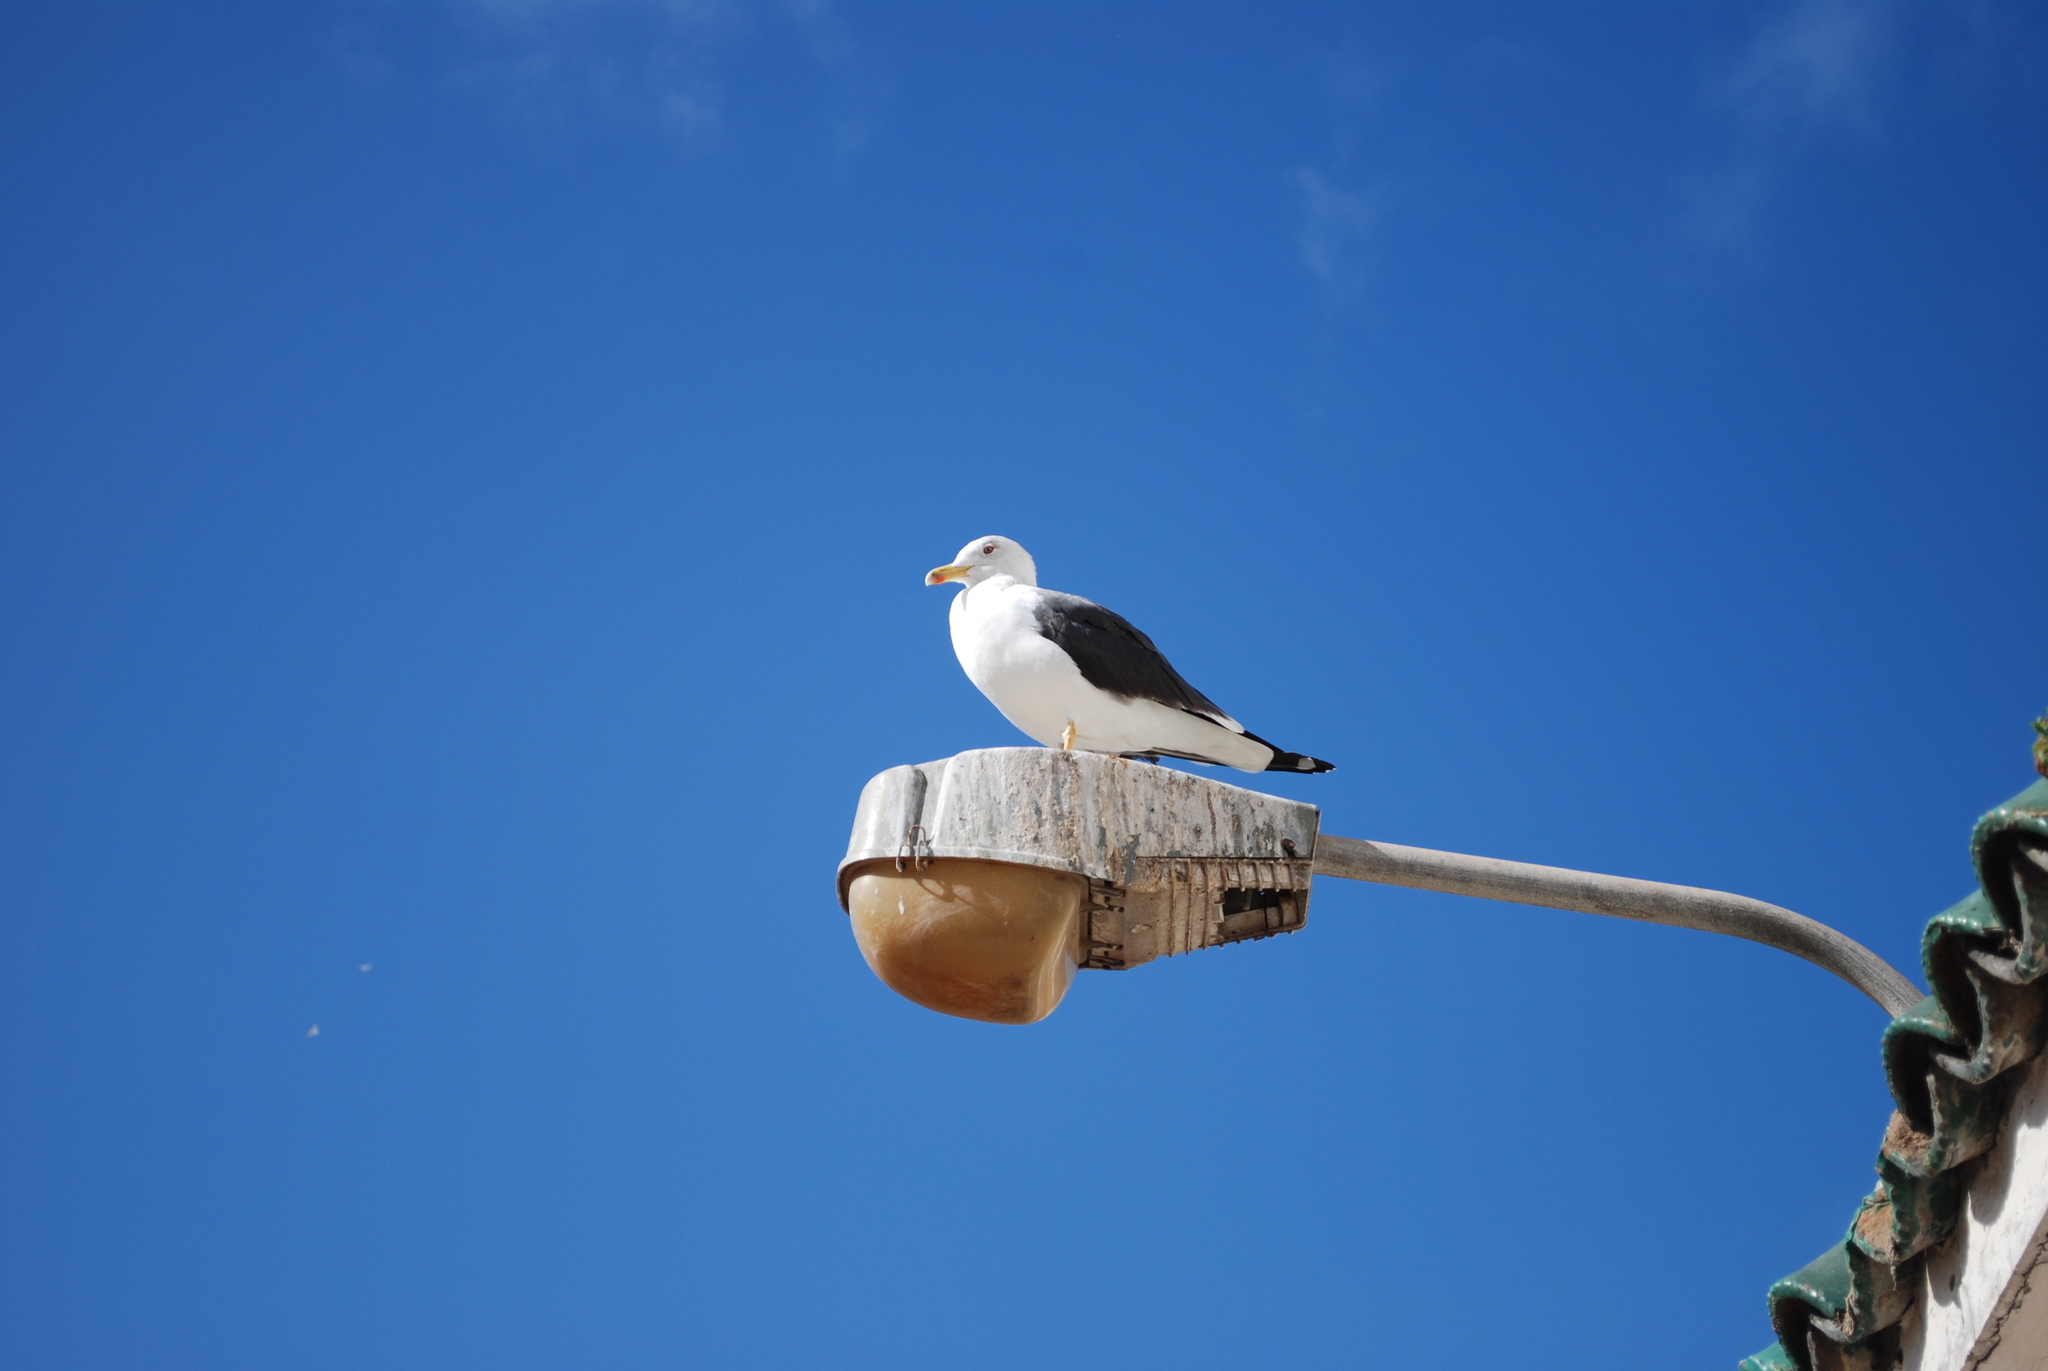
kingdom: Animalia
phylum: Chordata
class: Aves
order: Charadriiformes
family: Laridae
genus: Larus
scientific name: Larus fuscus
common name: Lesser black-backed gull
